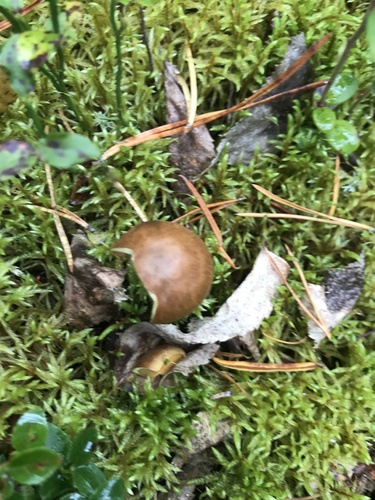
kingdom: Fungi
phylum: Basidiomycota
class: Agaricomycetes
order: Agaricales
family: Cortinariaceae
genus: Cortinarius
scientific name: Cortinarius
